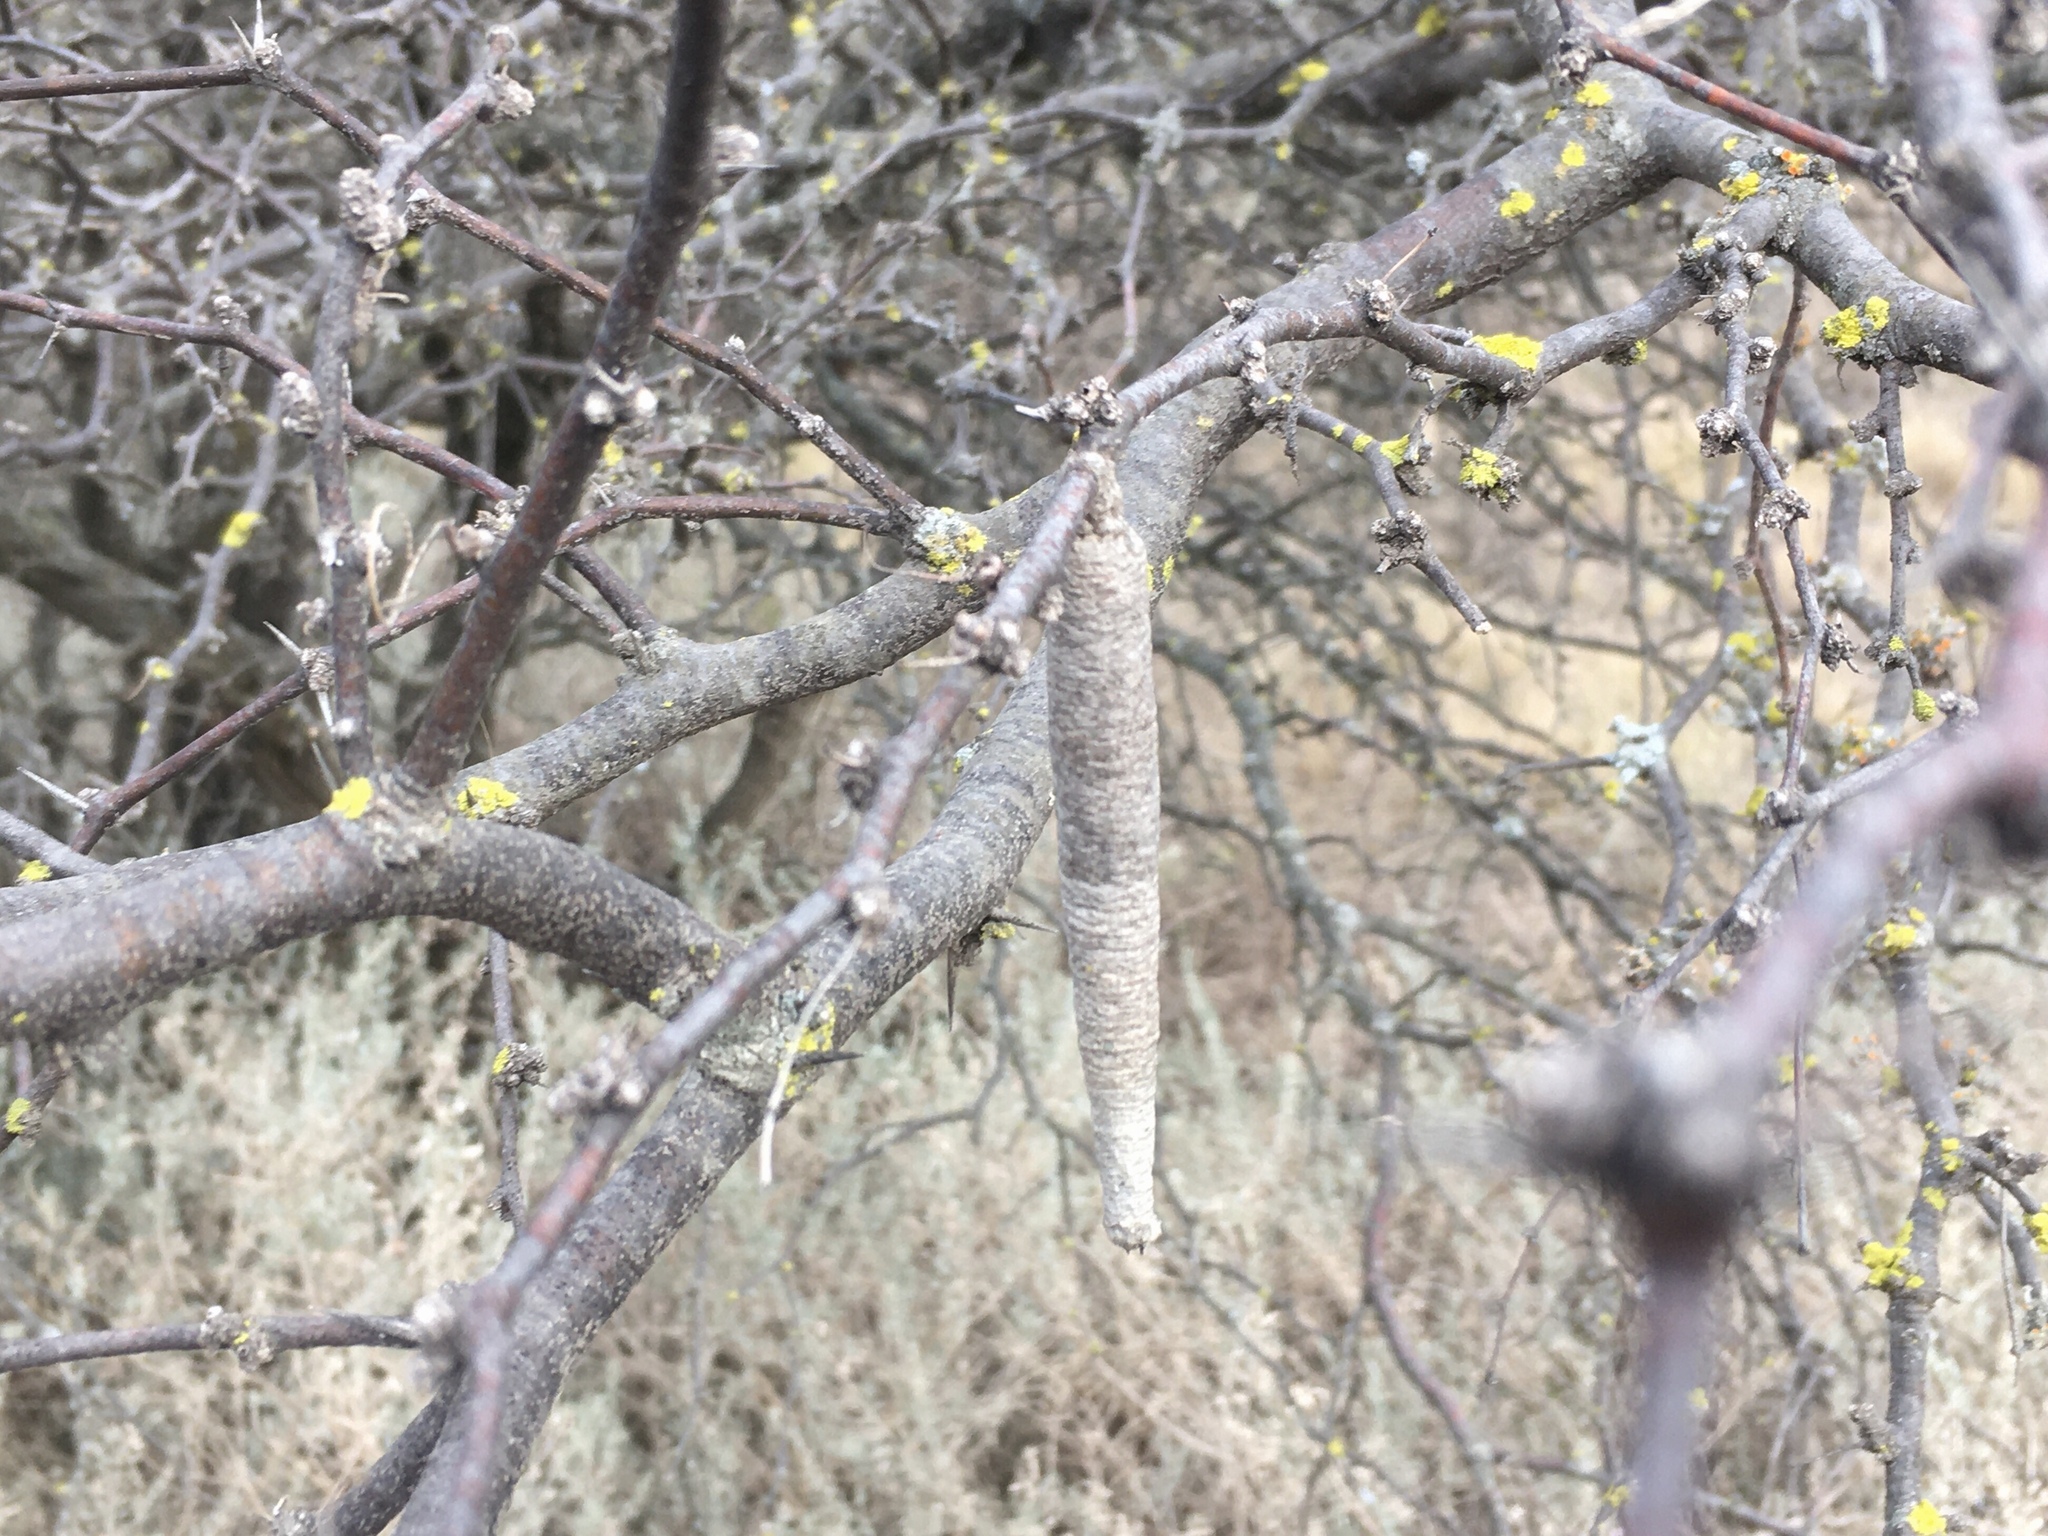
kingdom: Animalia
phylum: Arthropoda
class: Insecta
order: Lepidoptera
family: Psychidae
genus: Oiketicus
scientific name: Oiketicus geyeri
